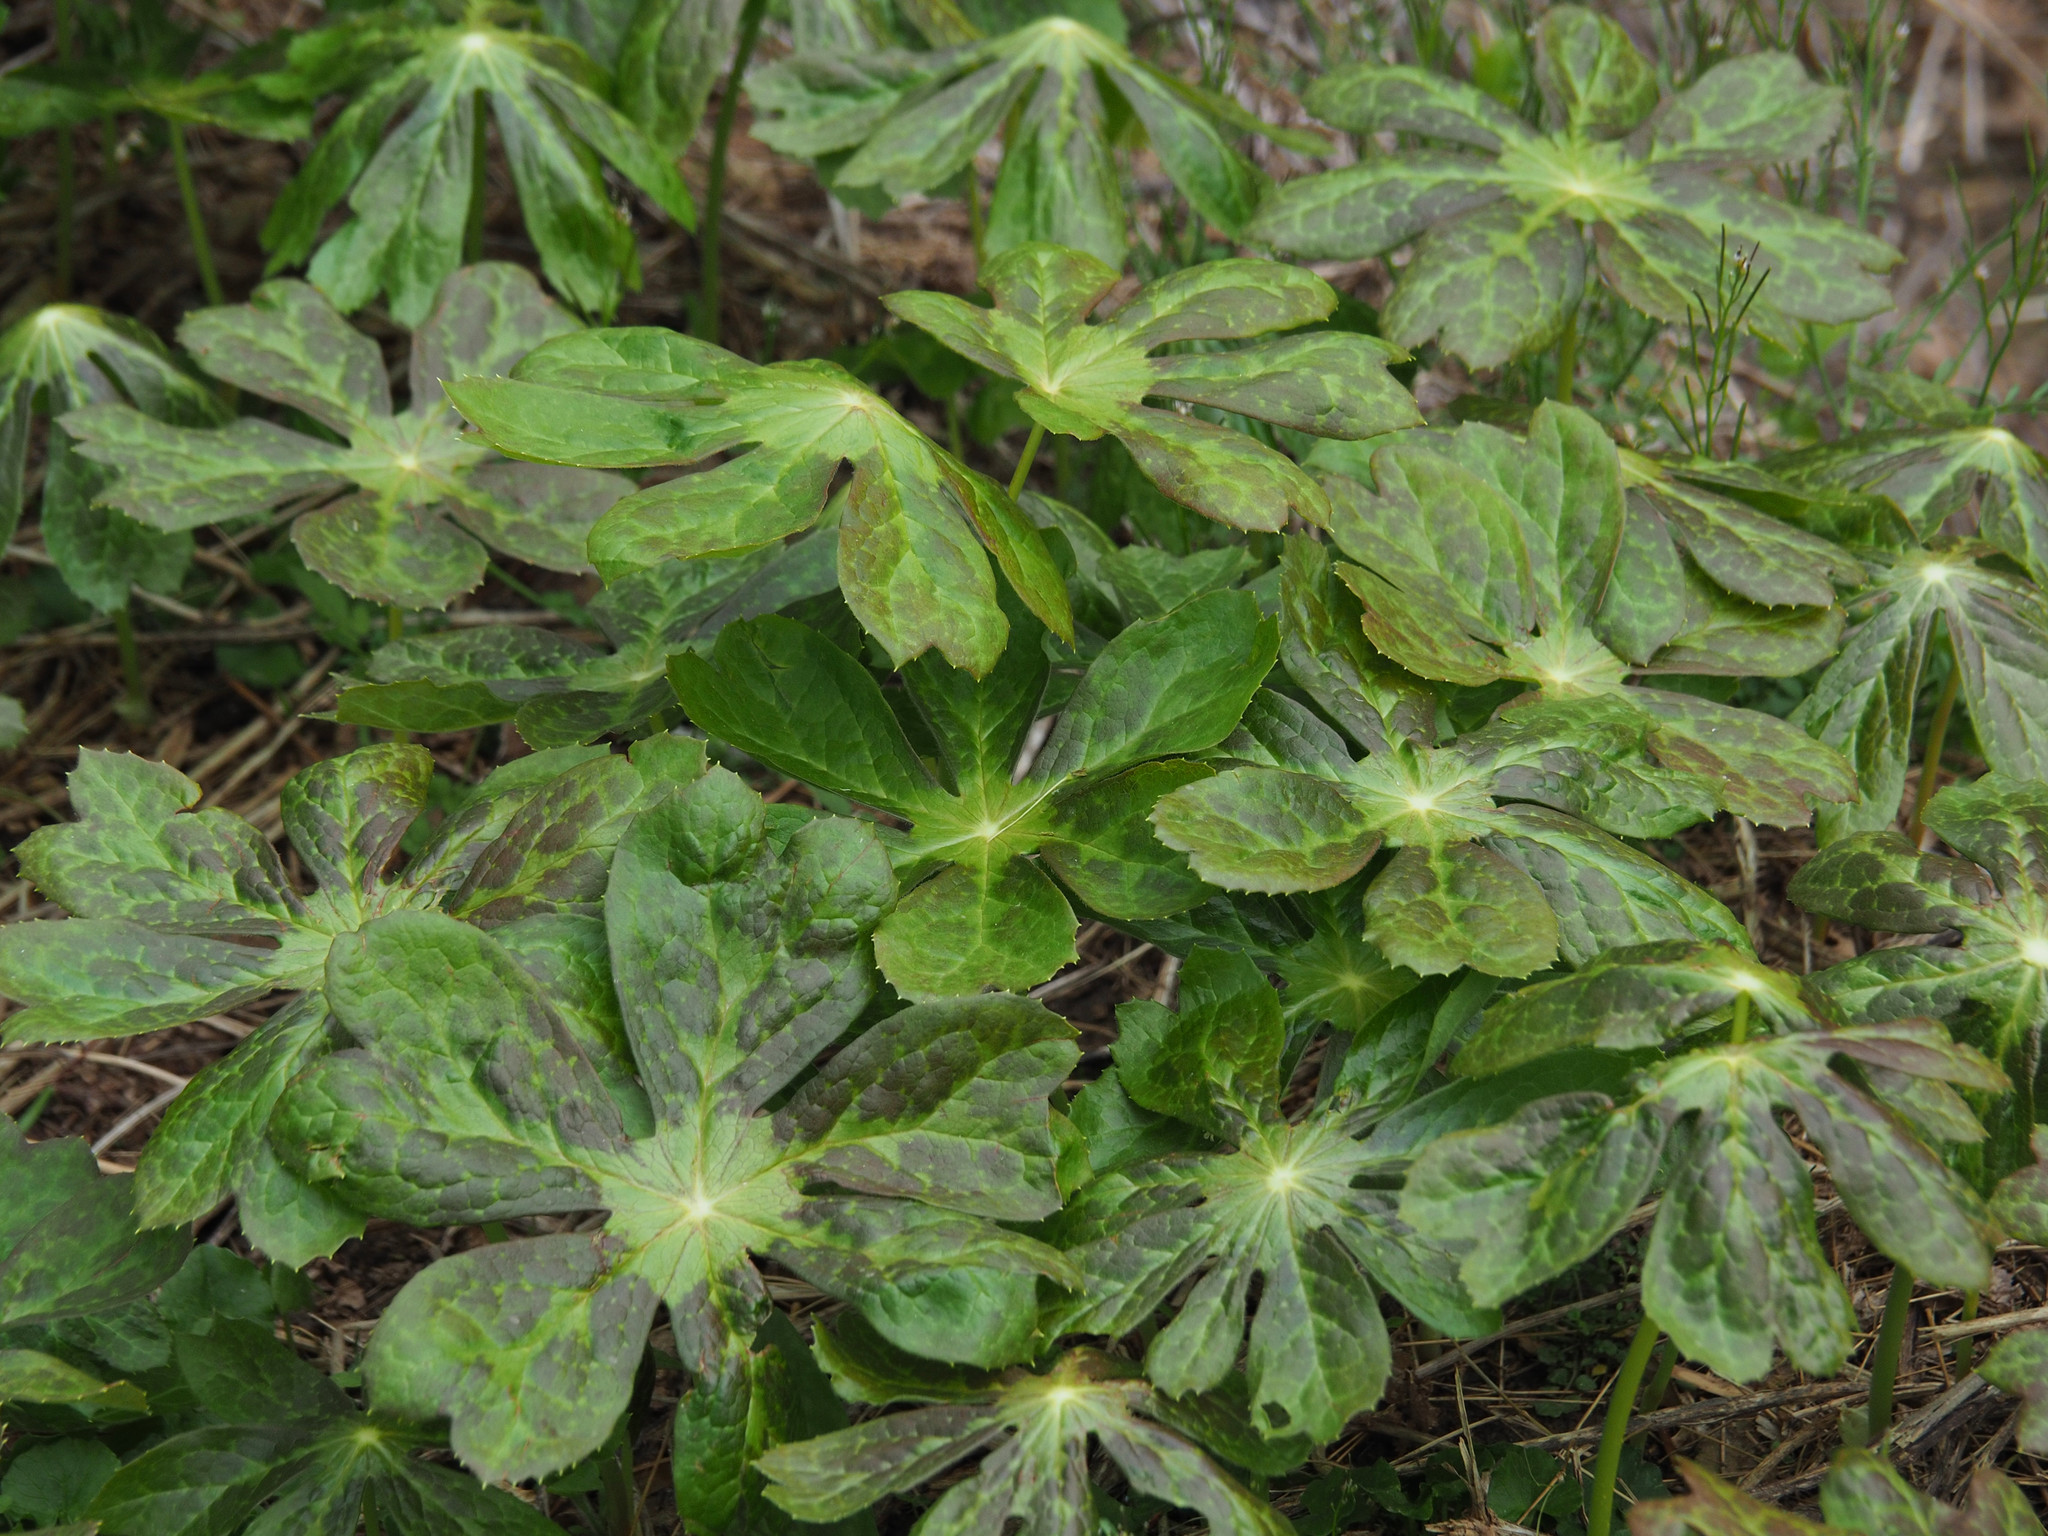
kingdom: Plantae
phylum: Tracheophyta
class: Magnoliopsida
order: Ranunculales
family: Berberidaceae
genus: Podophyllum
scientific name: Podophyllum peltatum
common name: Wild mandrake
